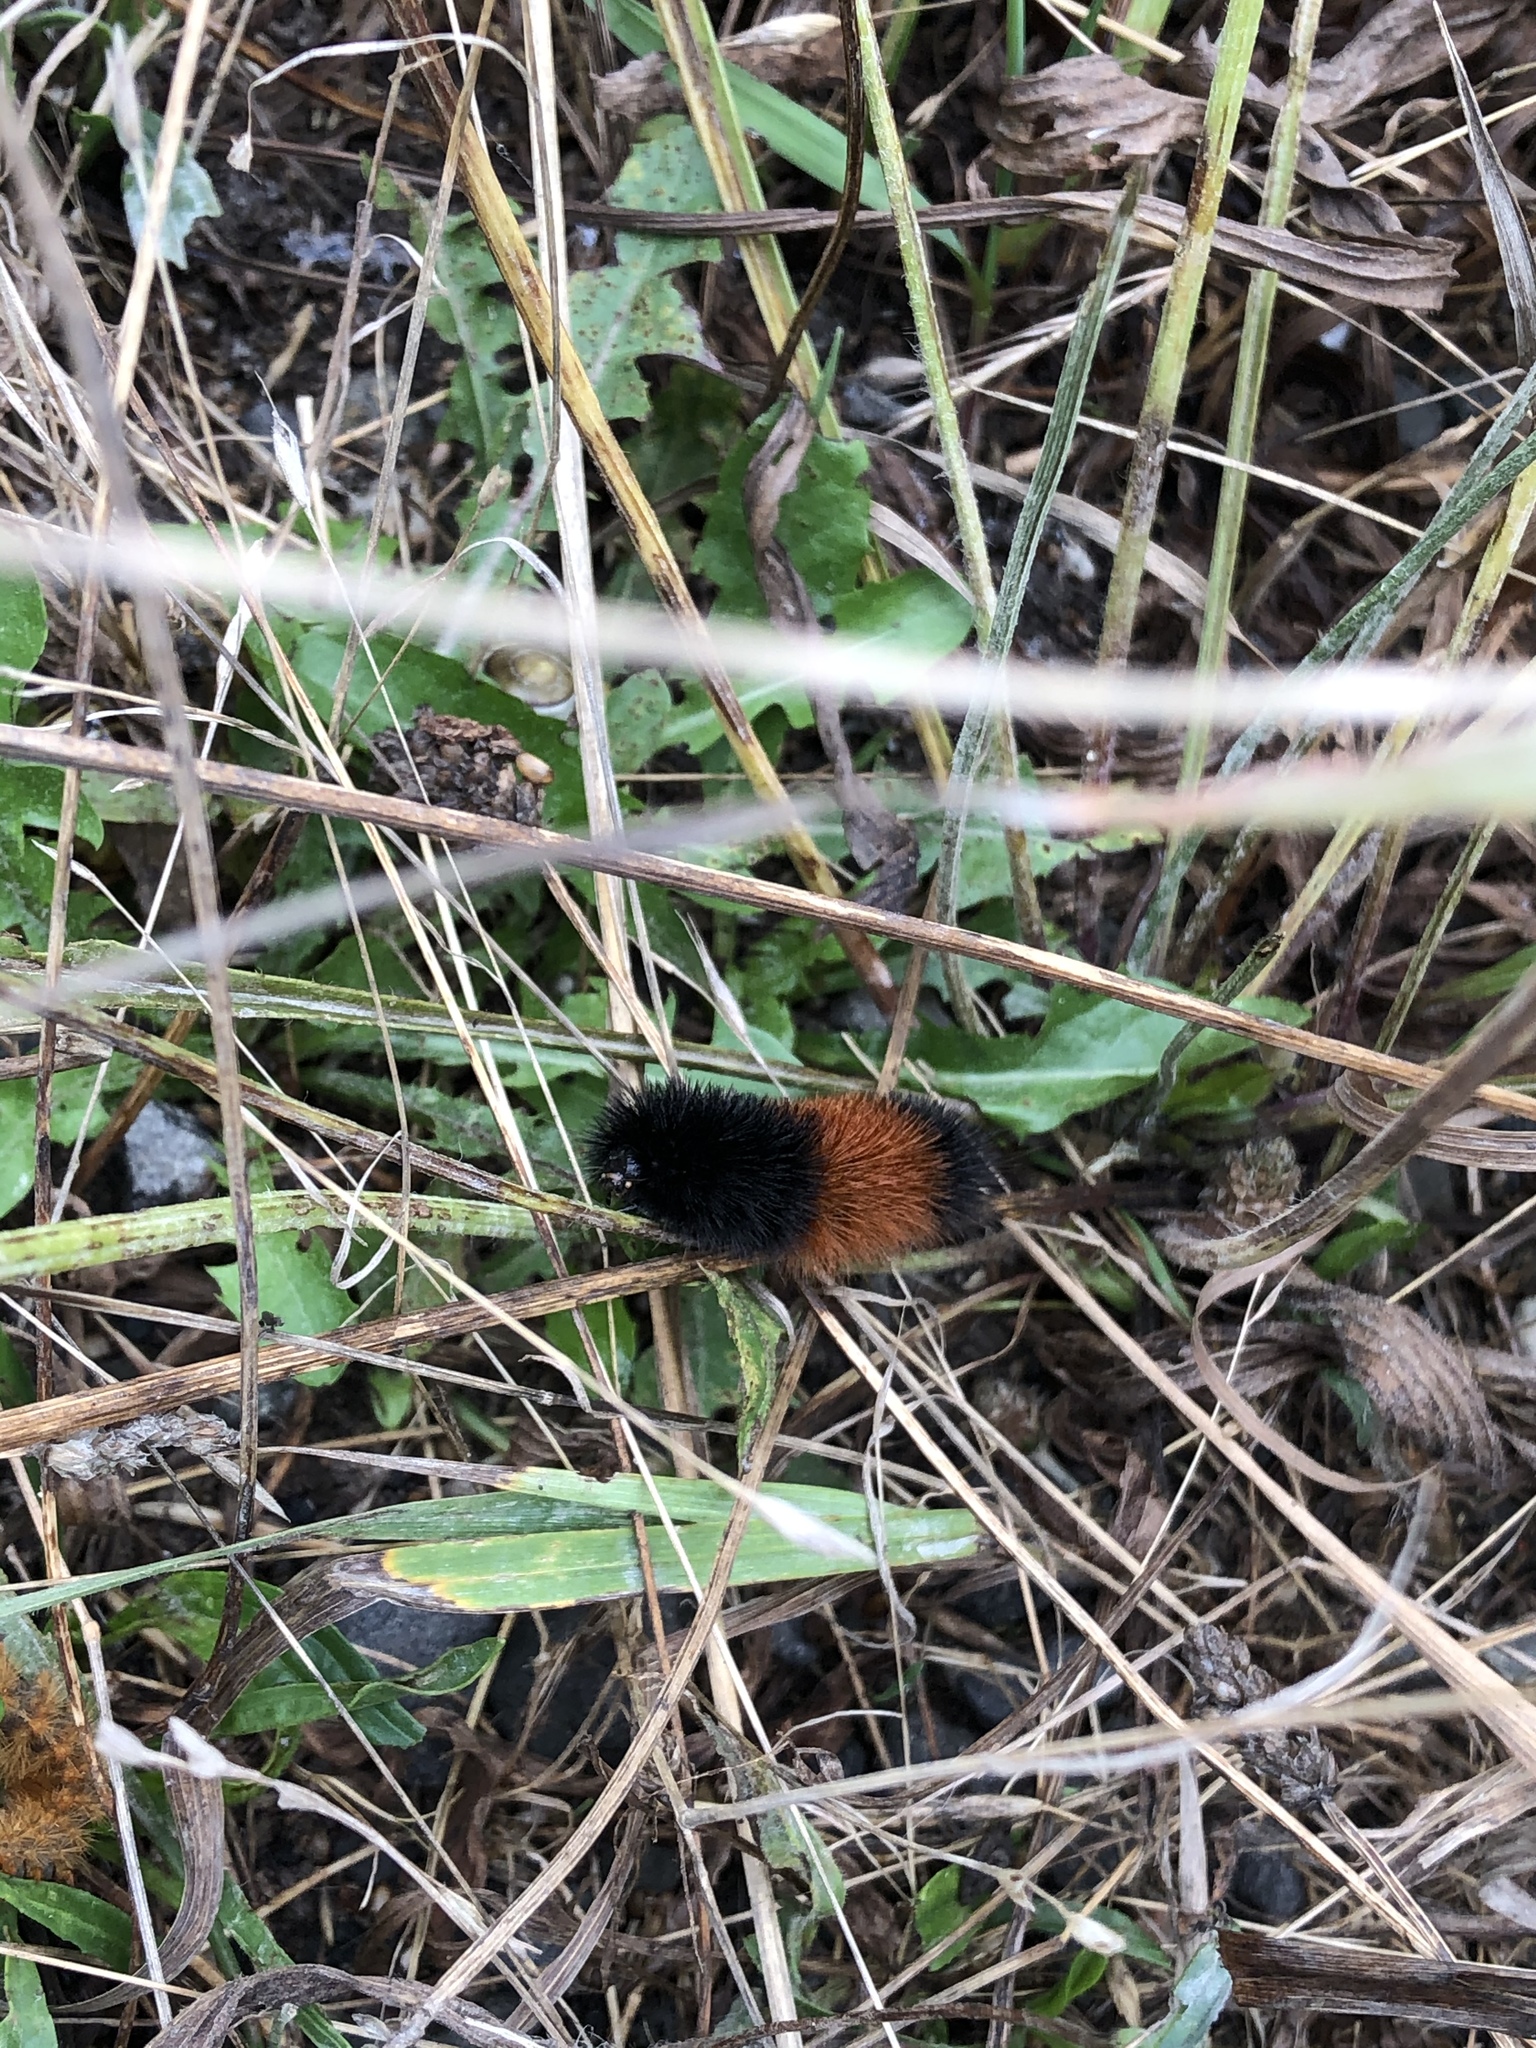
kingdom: Animalia
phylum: Arthropoda
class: Insecta
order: Lepidoptera
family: Erebidae
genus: Pyrrharctia
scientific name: Pyrrharctia isabella
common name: Isabella tiger moth
